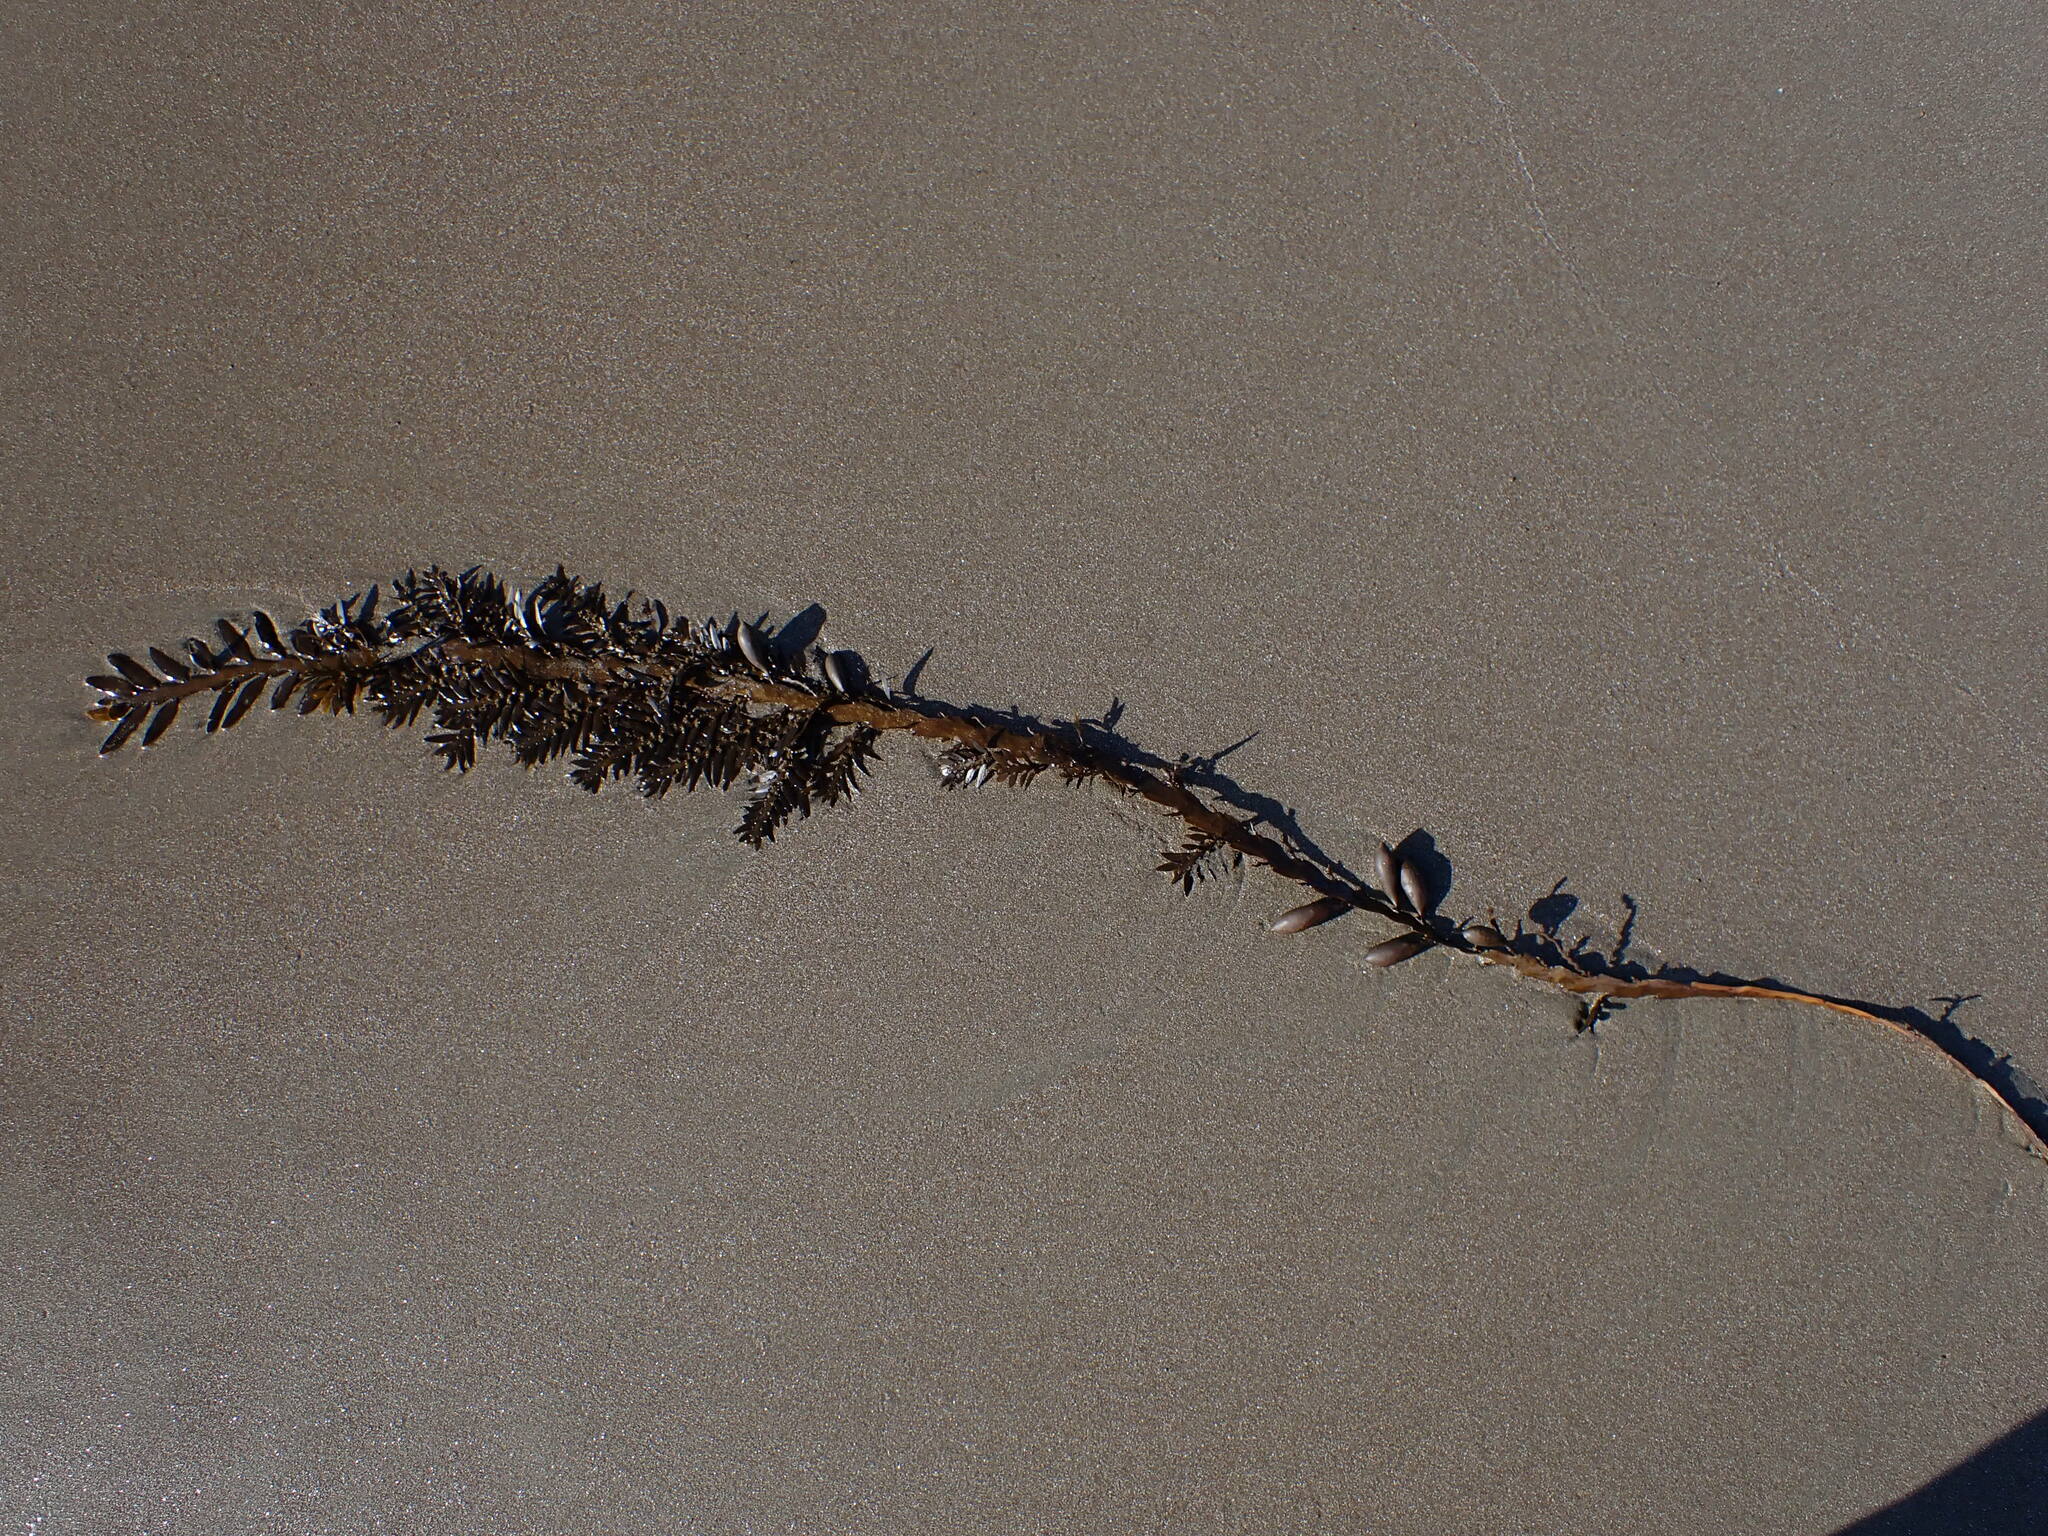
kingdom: Chromista
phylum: Ochrophyta
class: Phaeophyceae
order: Fucales
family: Sargassaceae
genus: Carpophyllum
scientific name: Carpophyllum maschalocarpum
